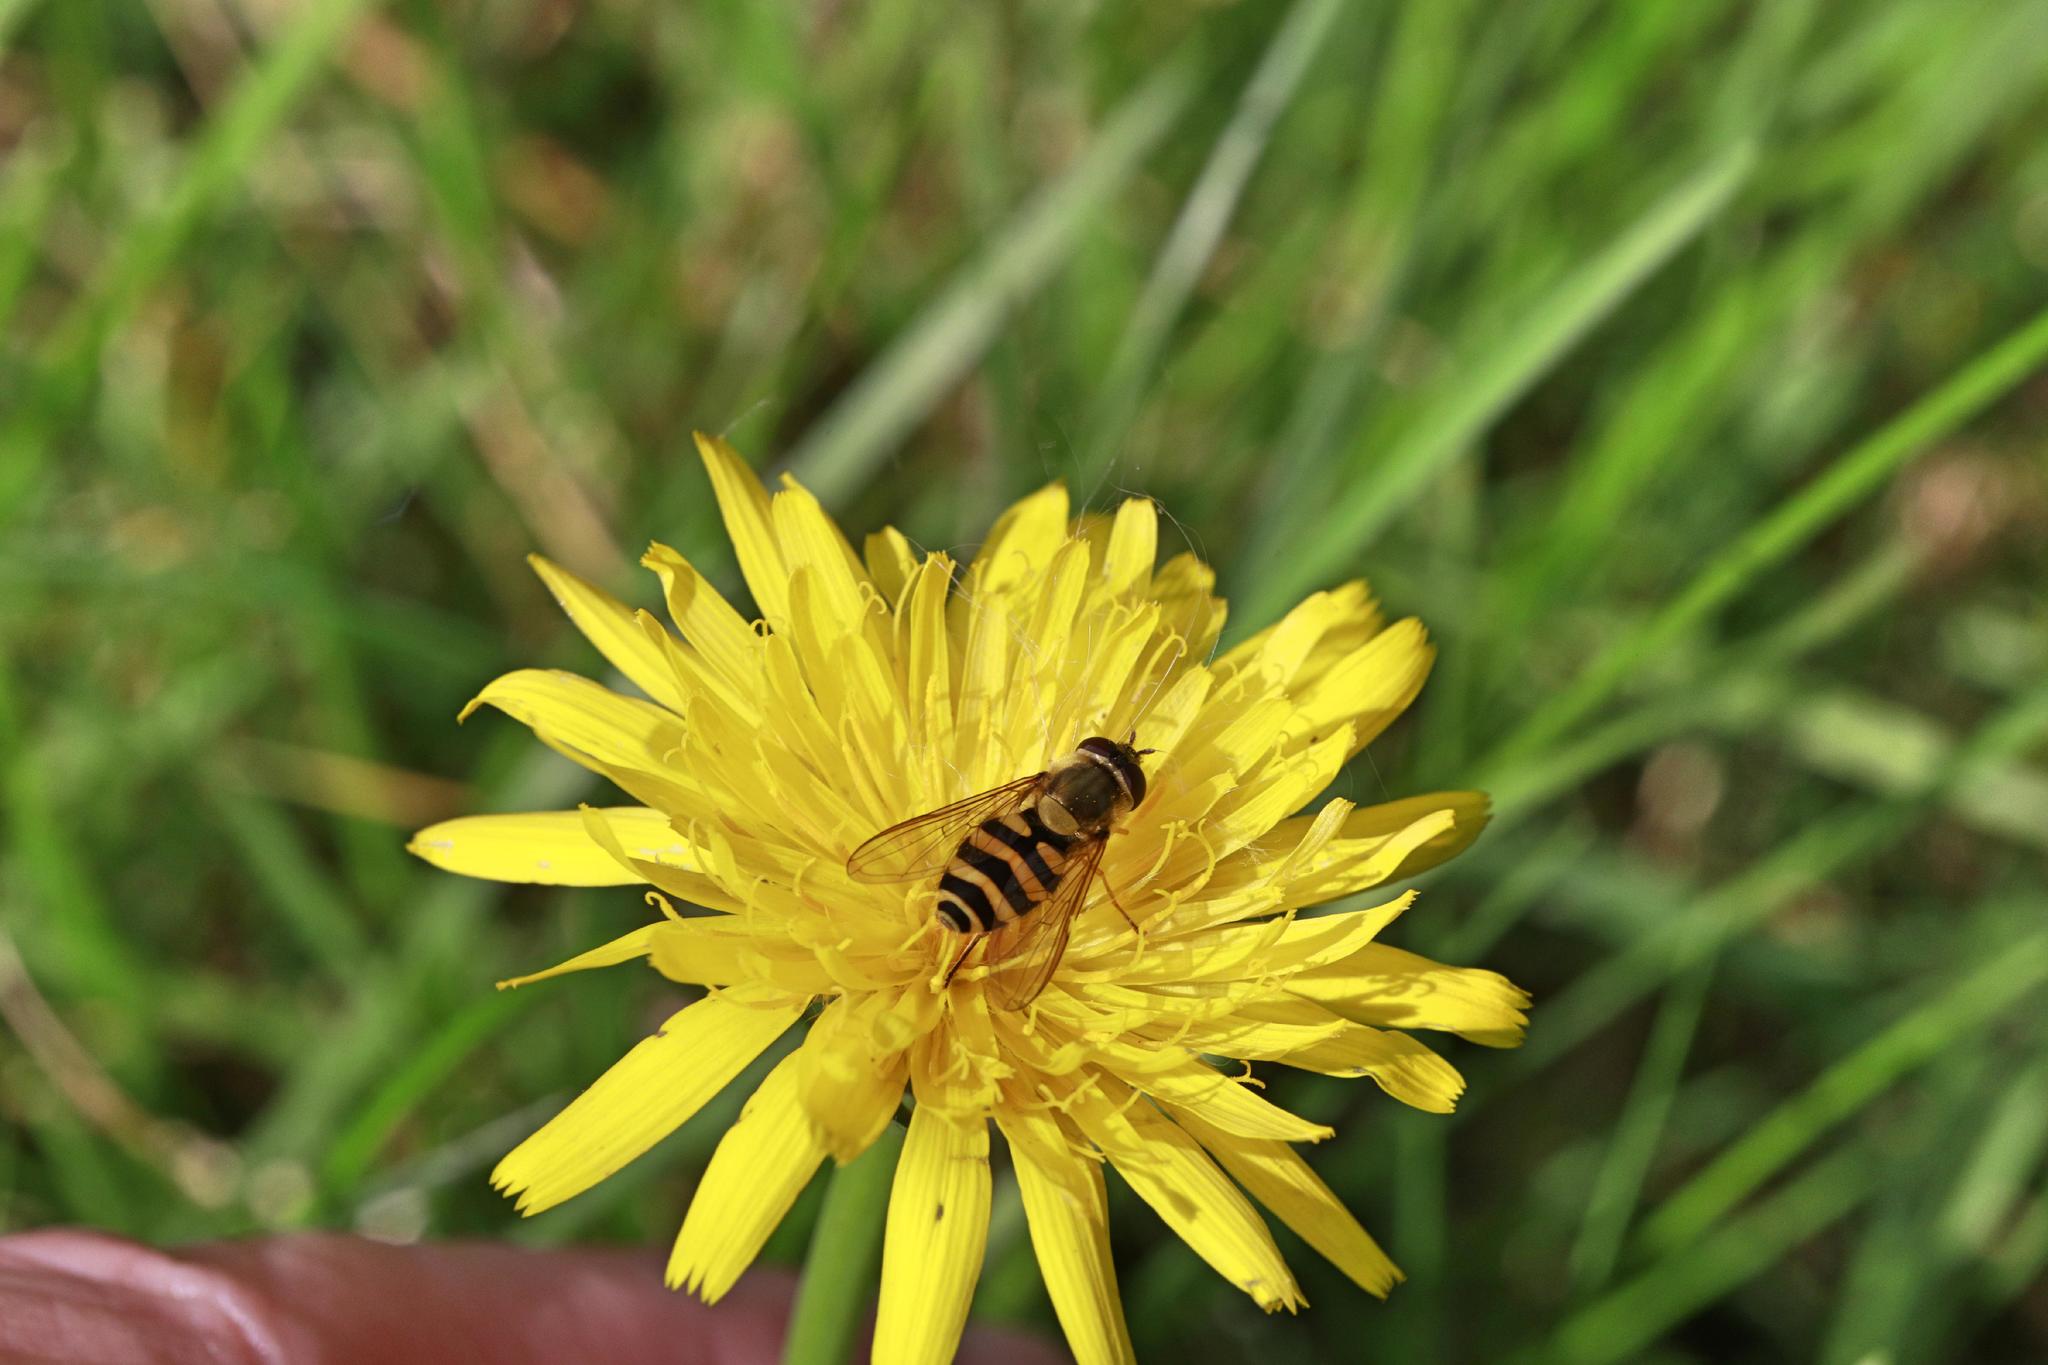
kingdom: Animalia
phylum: Arthropoda
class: Insecta
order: Diptera
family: Syrphidae
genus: Syrphus
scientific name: Syrphus
